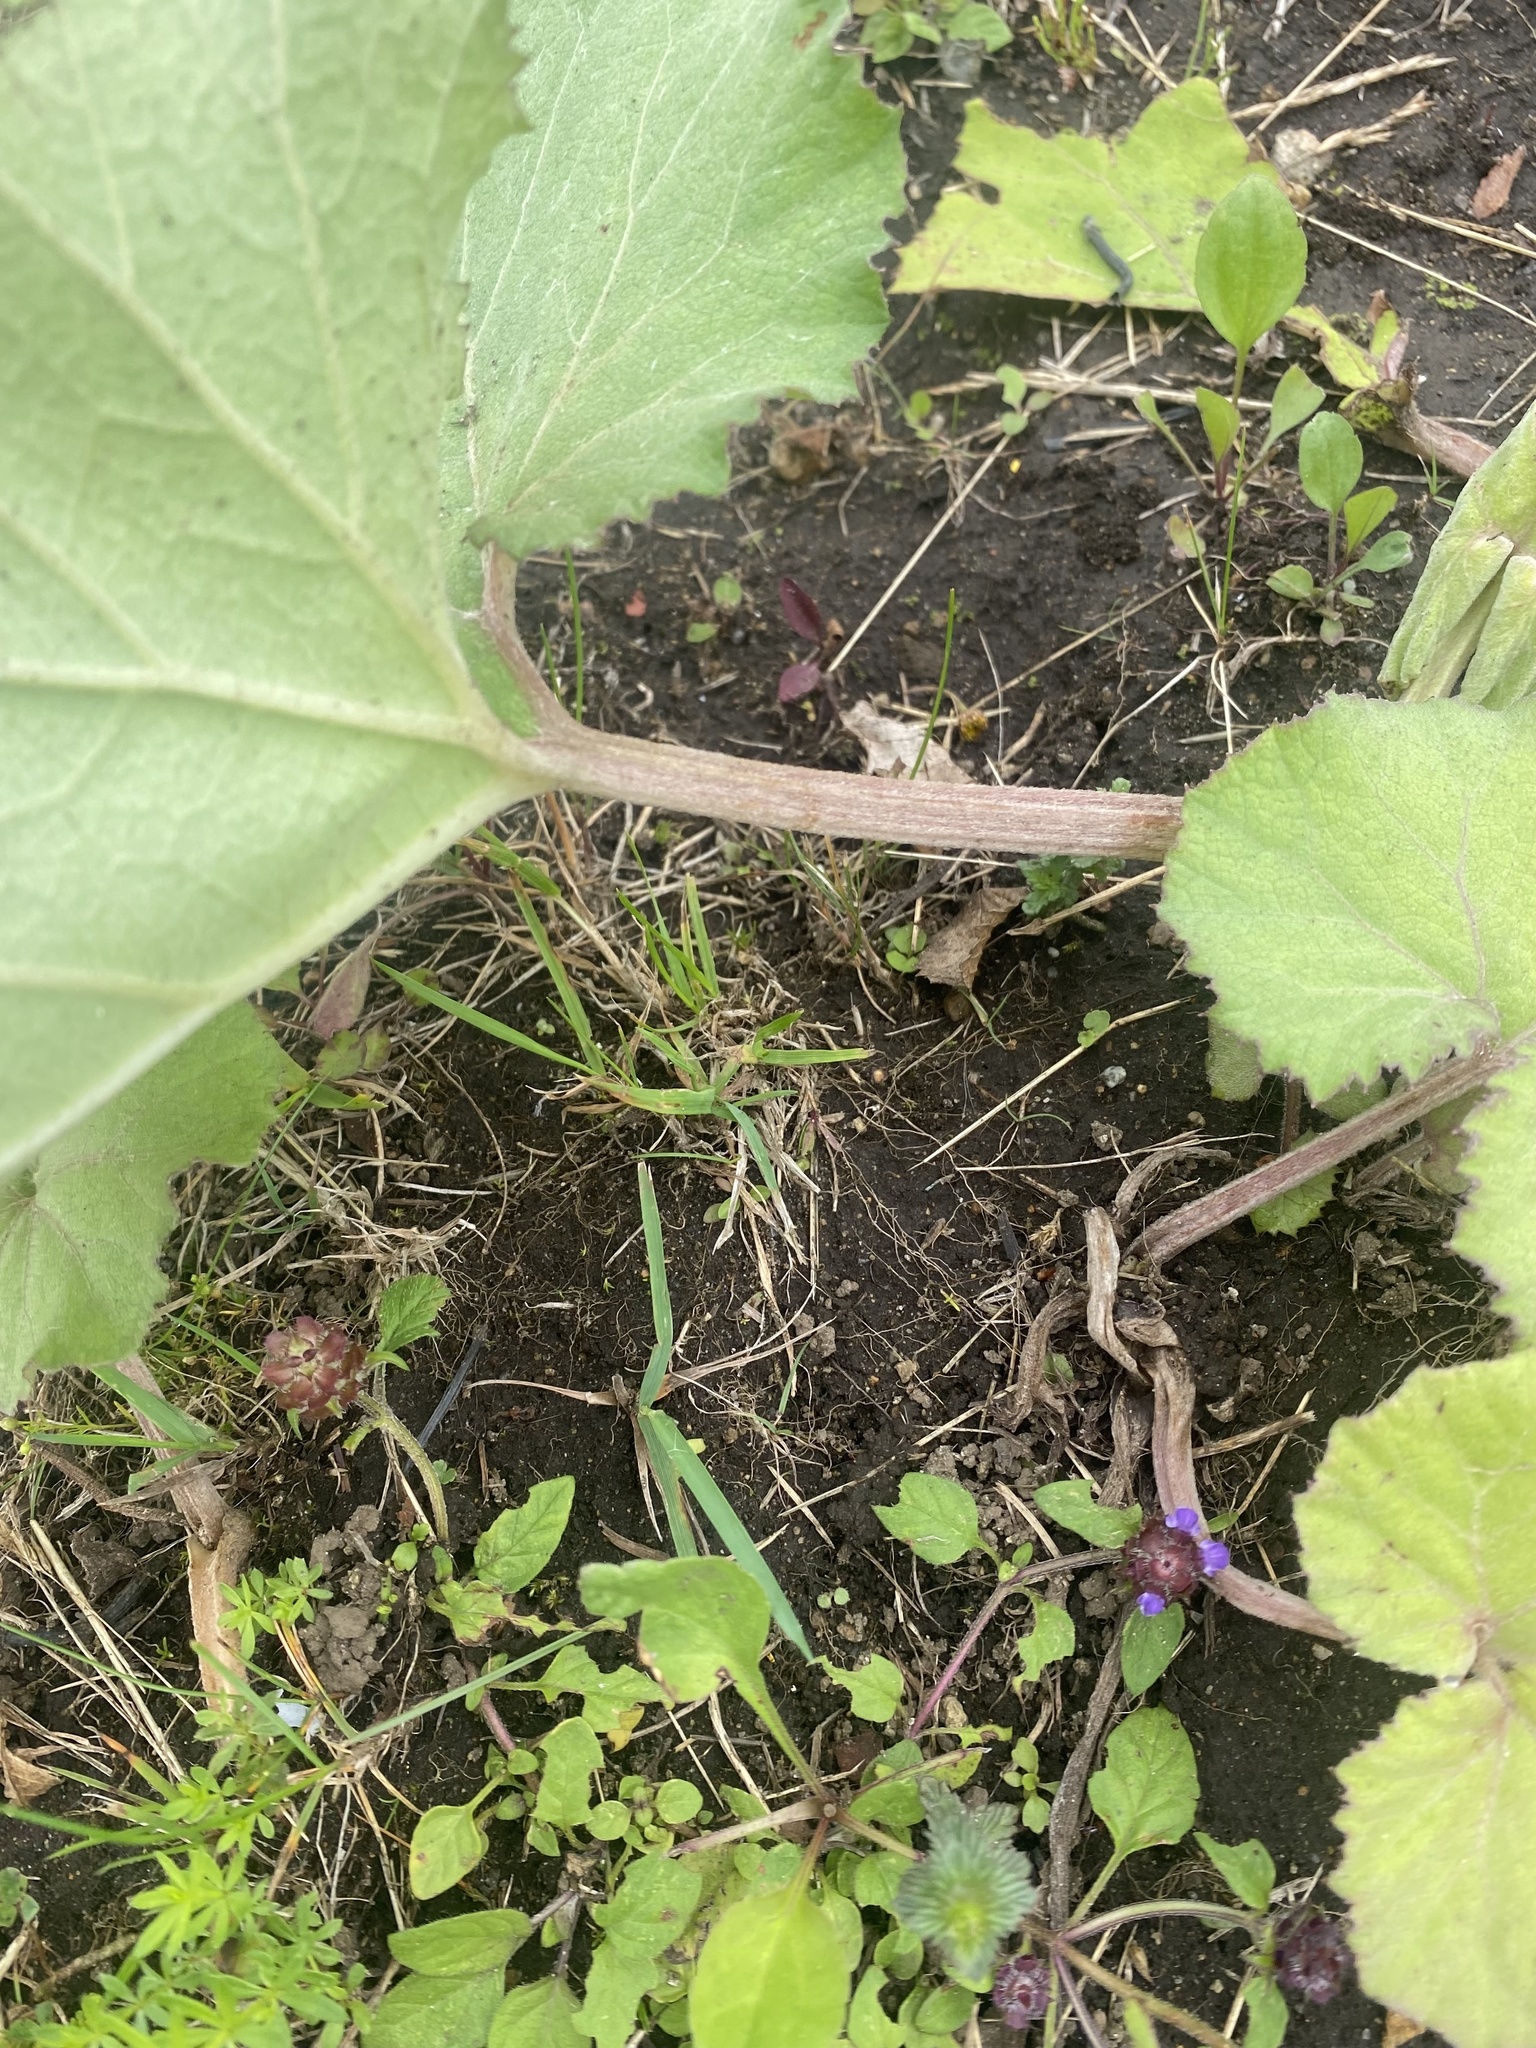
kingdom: Plantae
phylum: Tracheophyta
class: Magnoliopsida
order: Asterales
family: Asteraceae
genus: Petasites
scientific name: Petasites japonicus
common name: Giant butterbur
